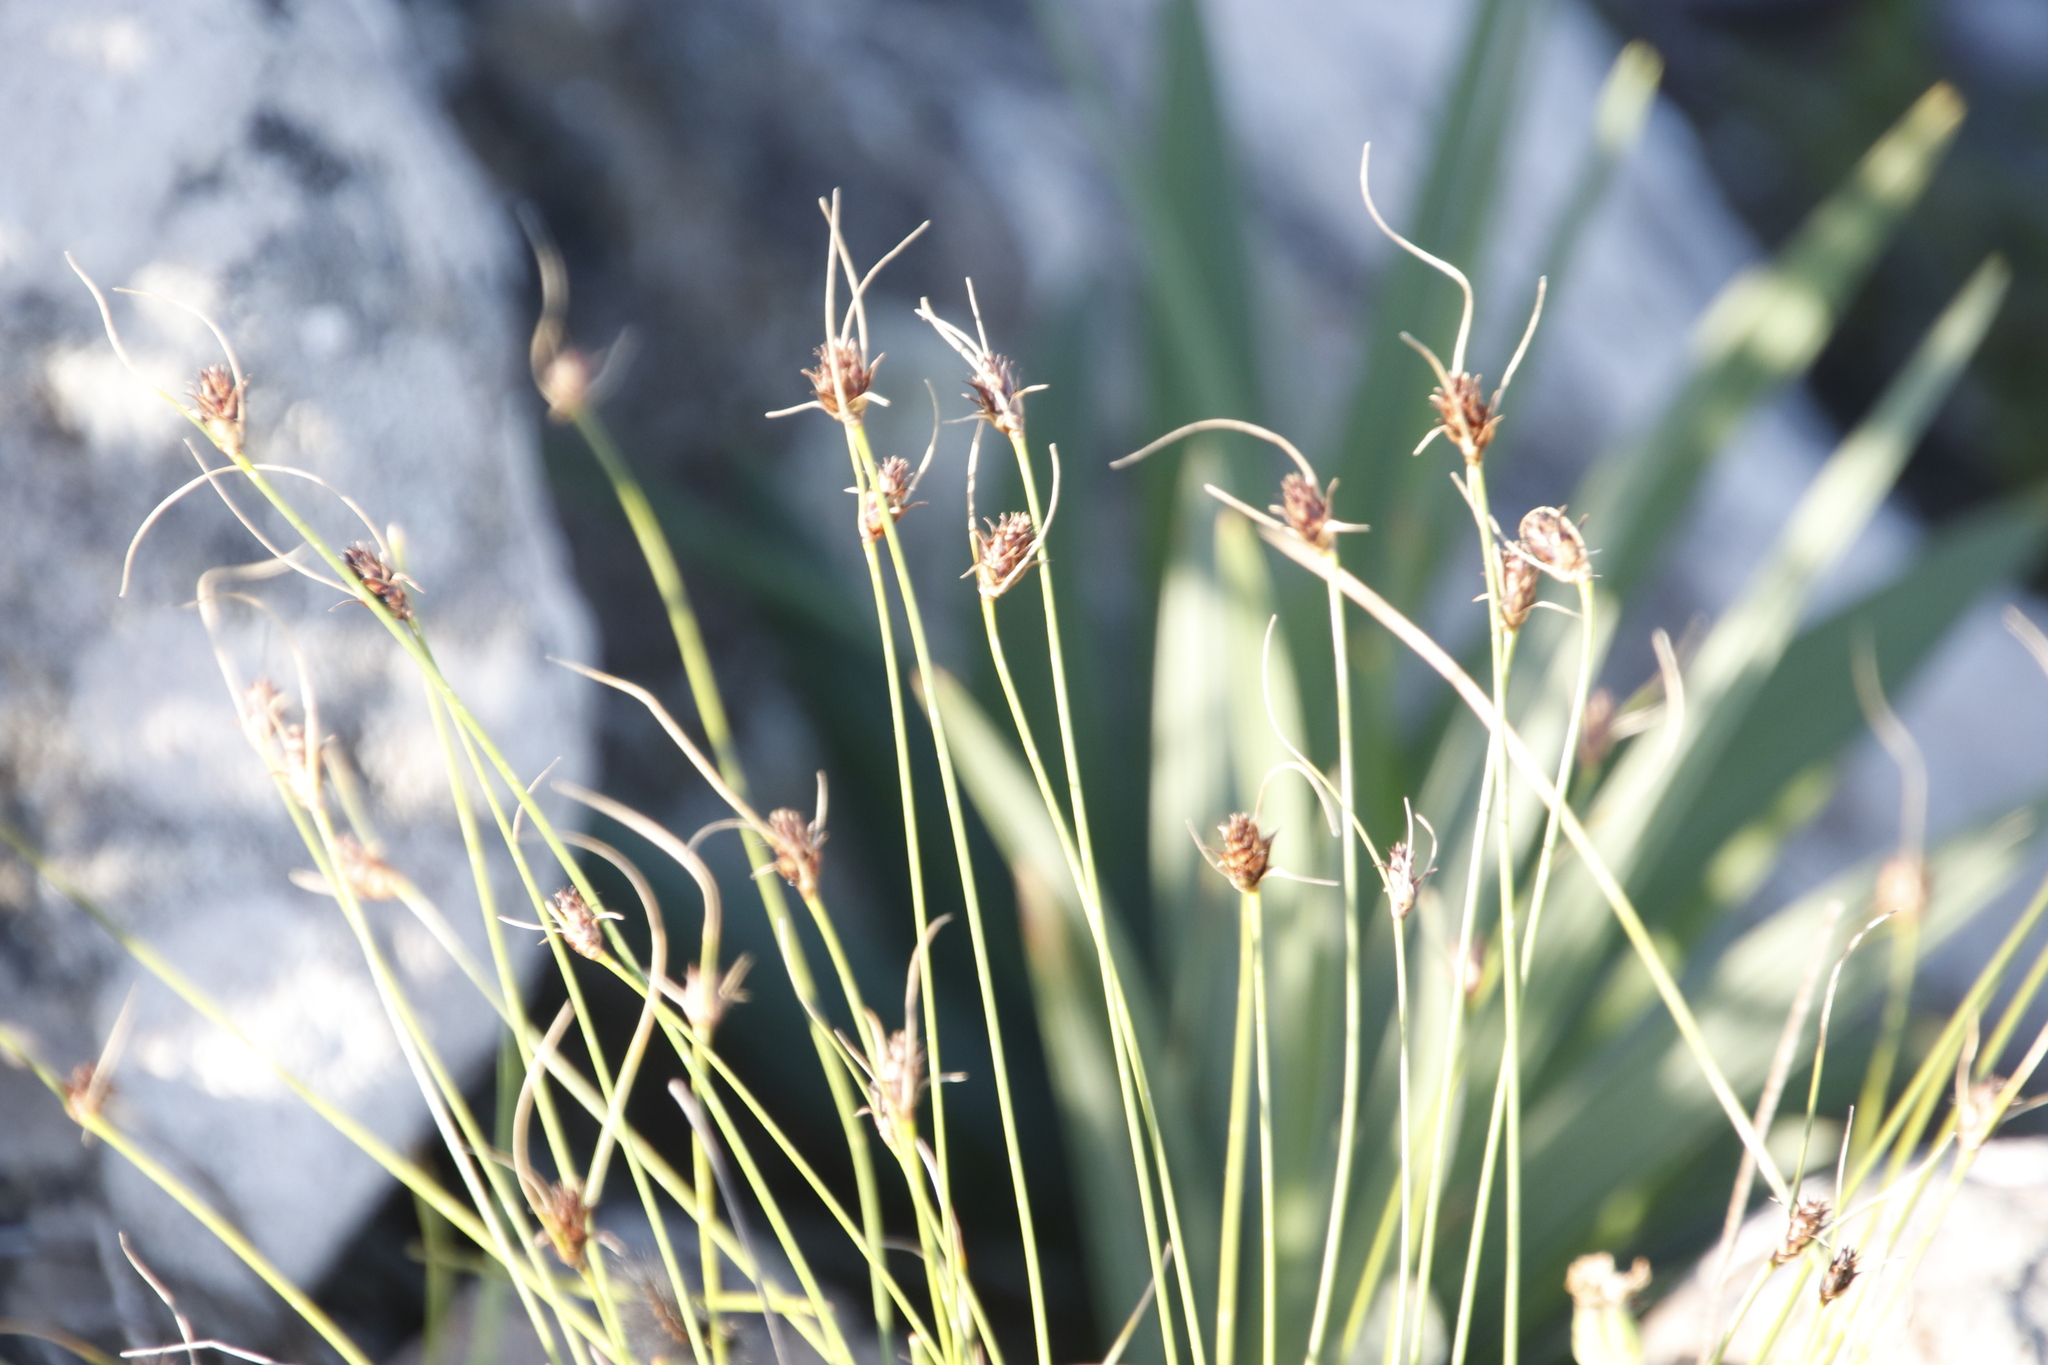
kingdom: Plantae
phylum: Tracheophyta
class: Liliopsida
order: Poales
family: Cyperaceae
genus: Ficinia
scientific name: Ficinia nigrescens
